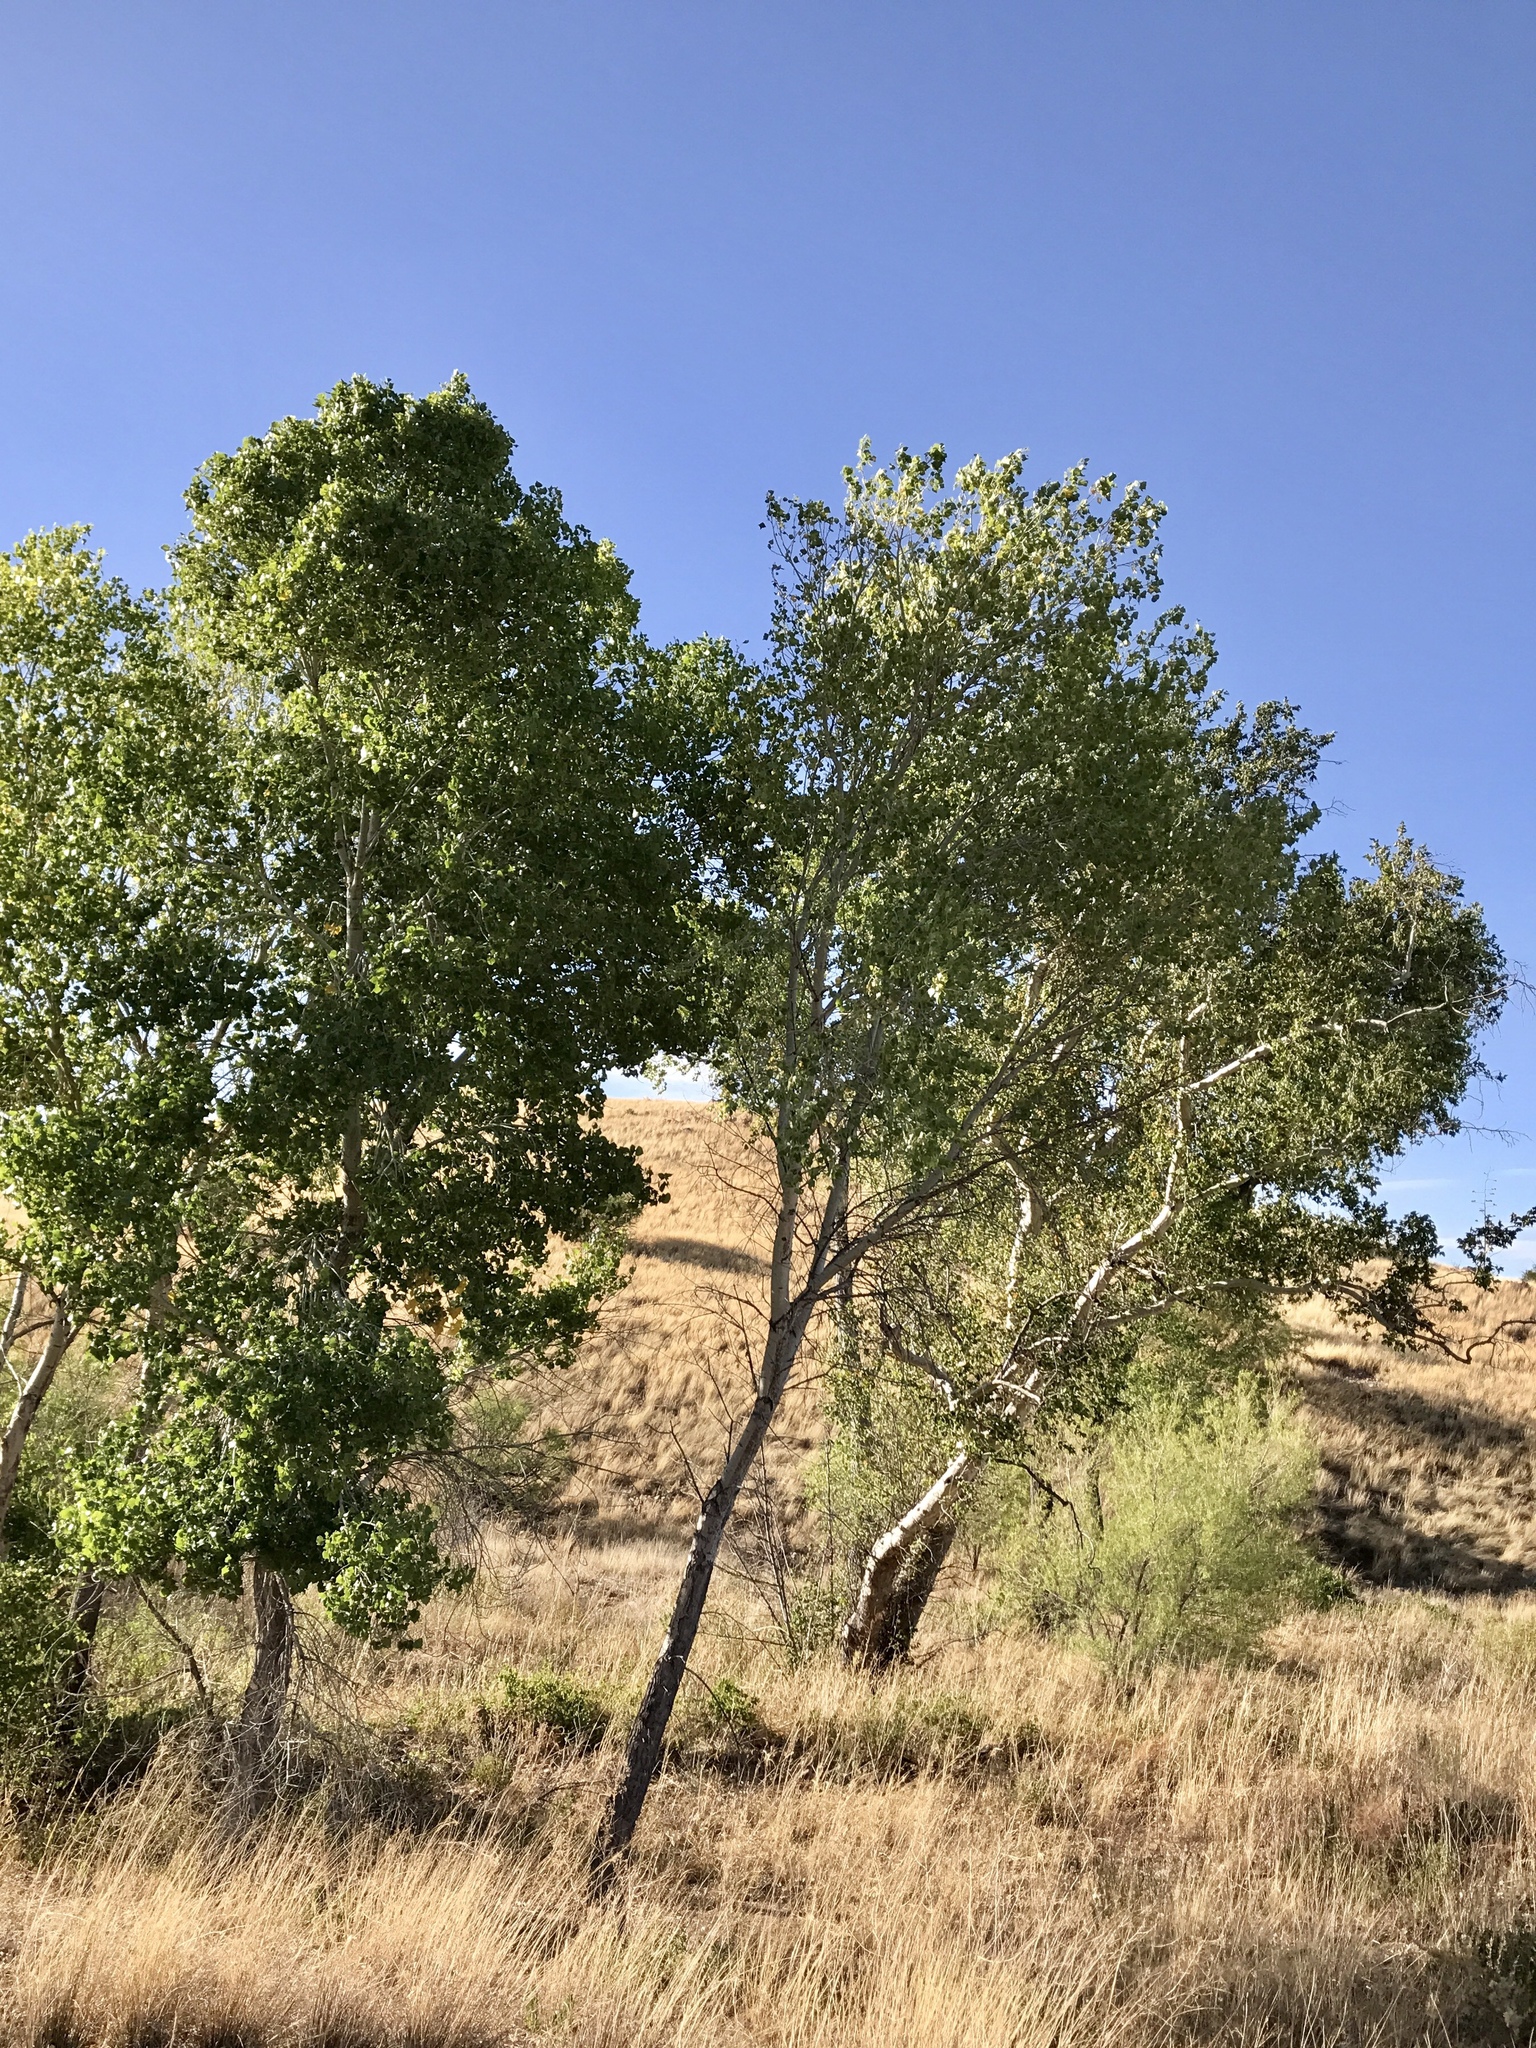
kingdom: Plantae
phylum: Tracheophyta
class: Magnoliopsida
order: Malpighiales
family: Salicaceae
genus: Populus
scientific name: Populus fremontii
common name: Fremont's cottonwood
